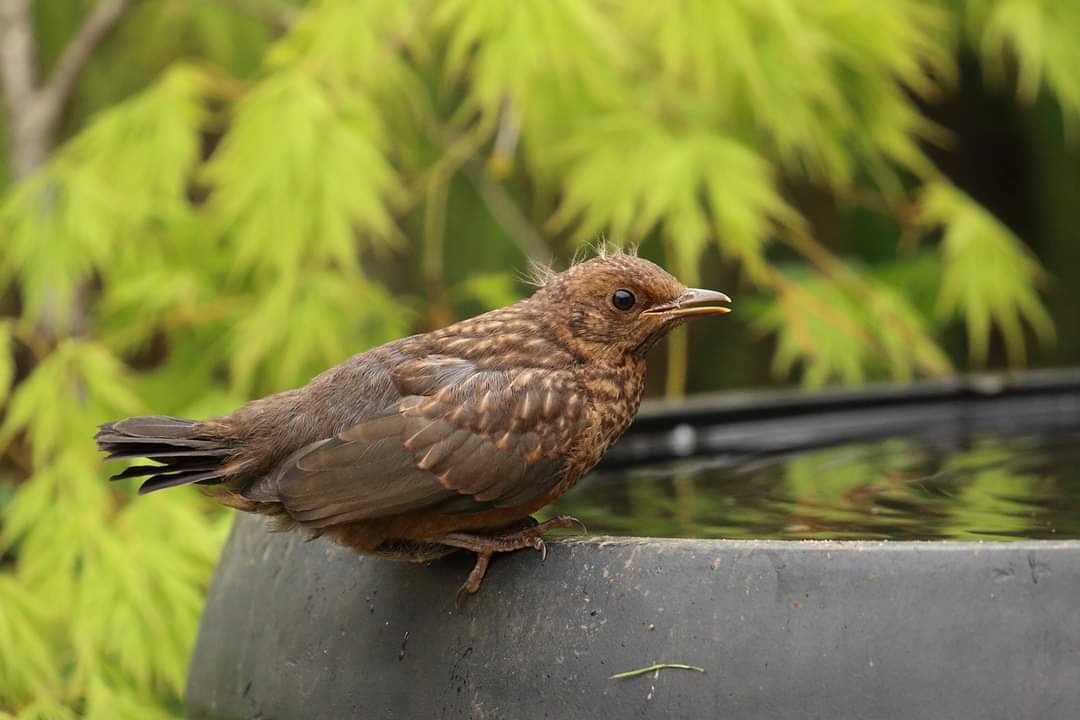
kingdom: Animalia
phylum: Chordata
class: Aves
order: Passeriformes
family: Turdidae
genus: Turdus
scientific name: Turdus merula
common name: Common blackbird
